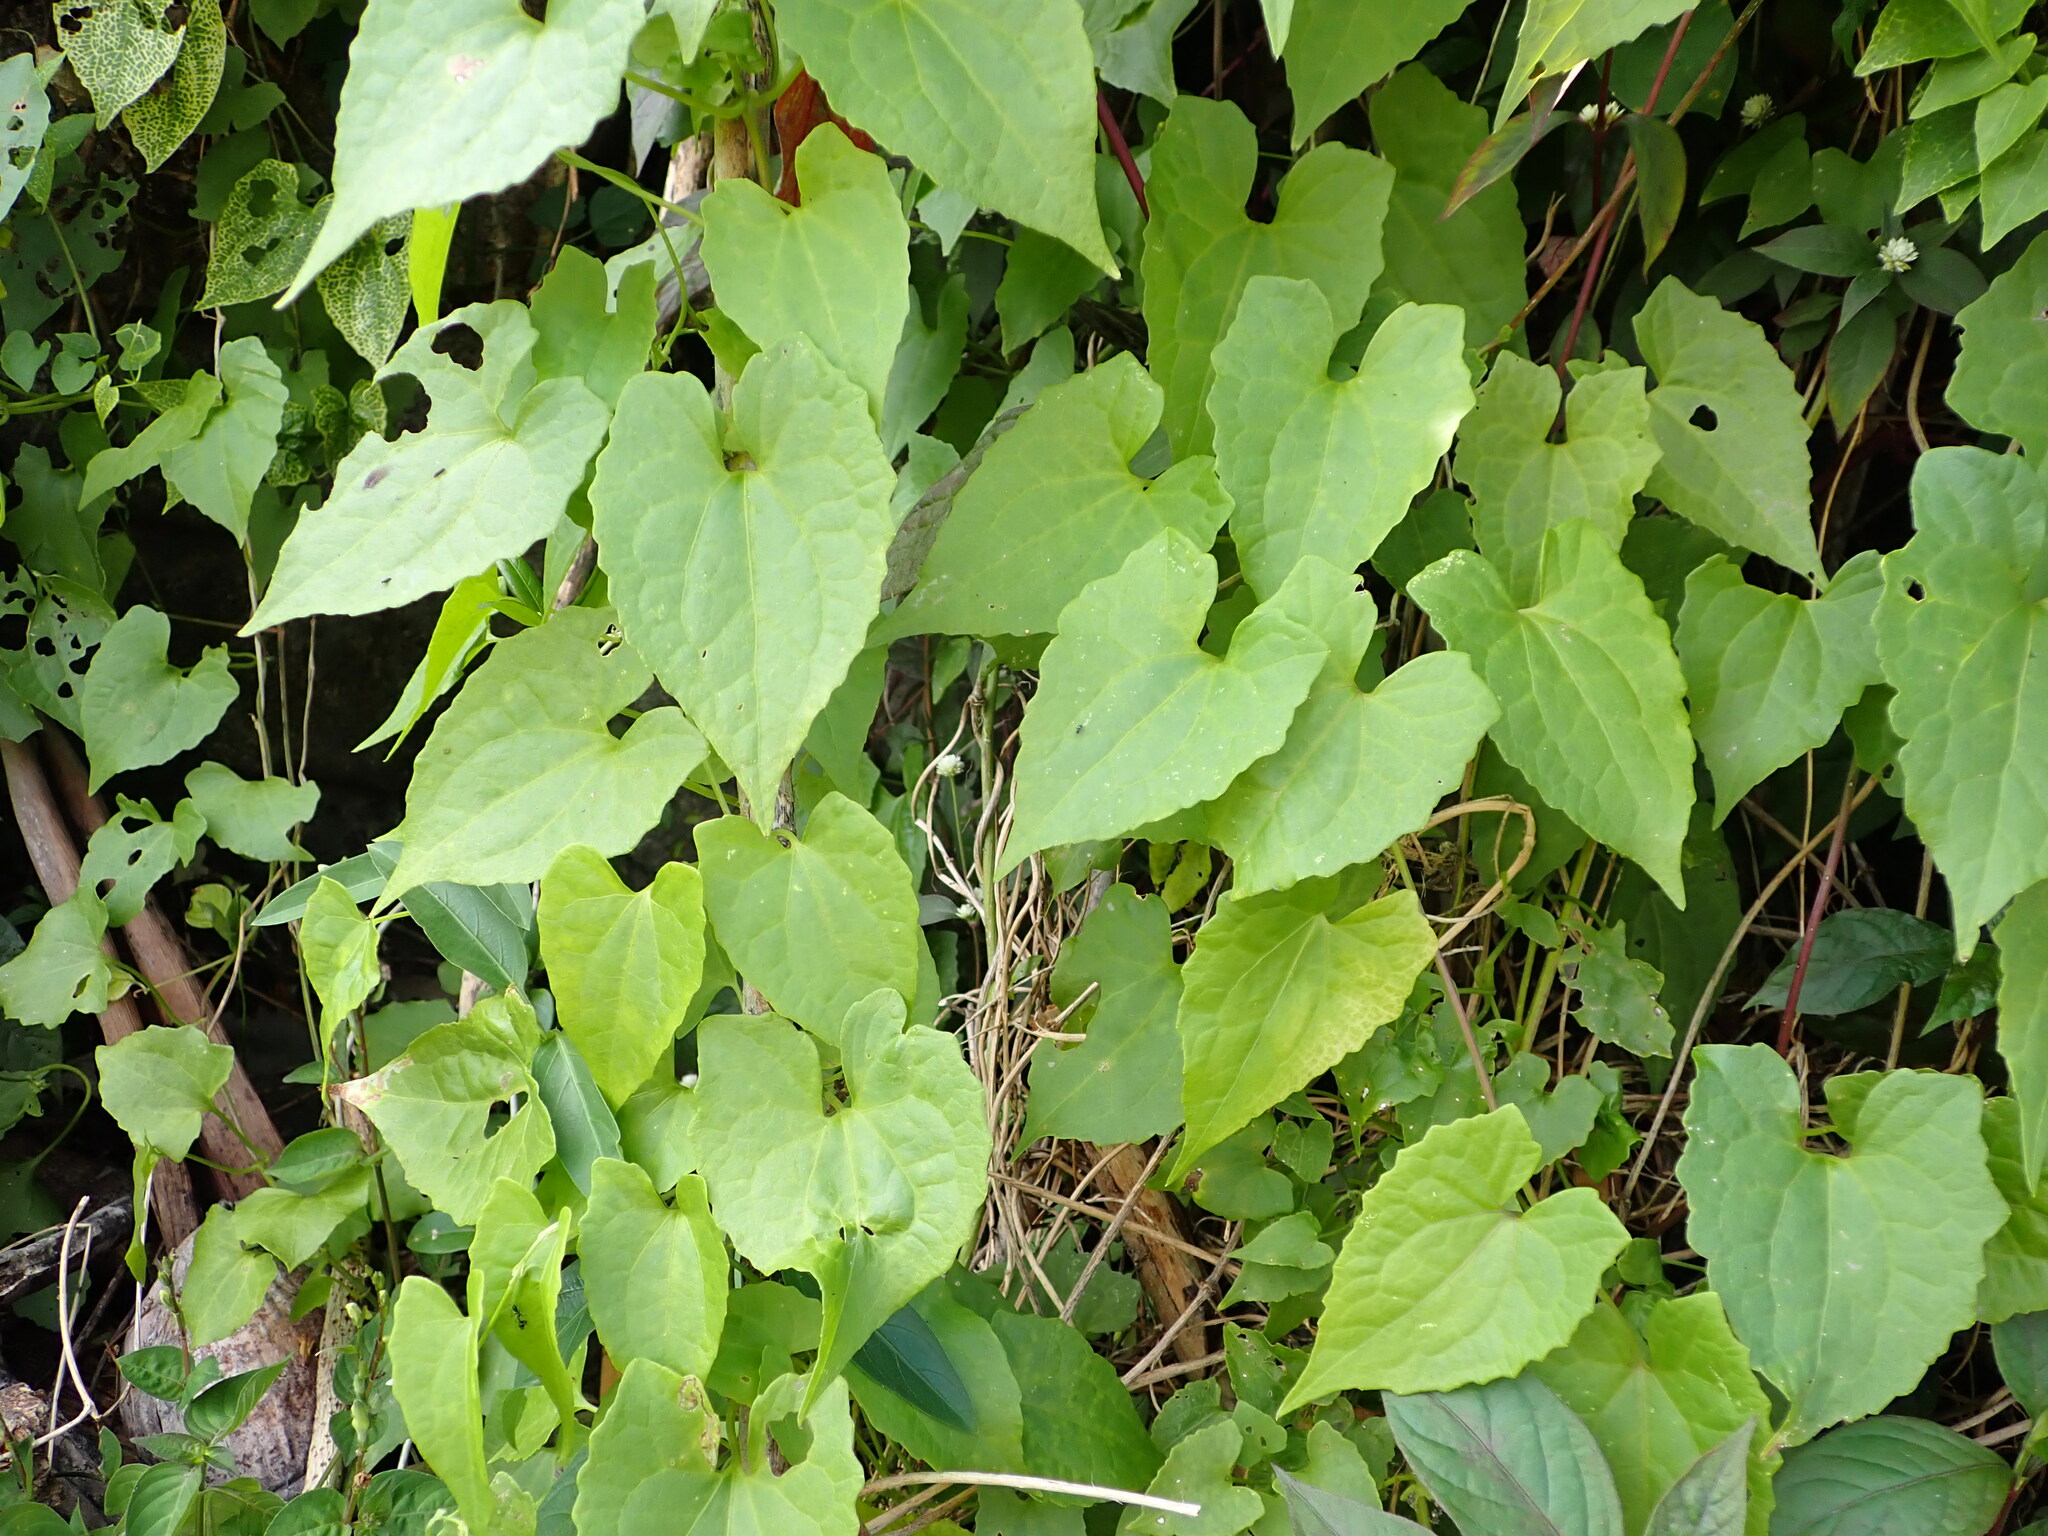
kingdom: Plantae
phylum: Tracheophyta
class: Magnoliopsida
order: Asterales
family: Asteraceae
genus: Mikania
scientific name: Mikania micrantha
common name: Mile-a-minute
